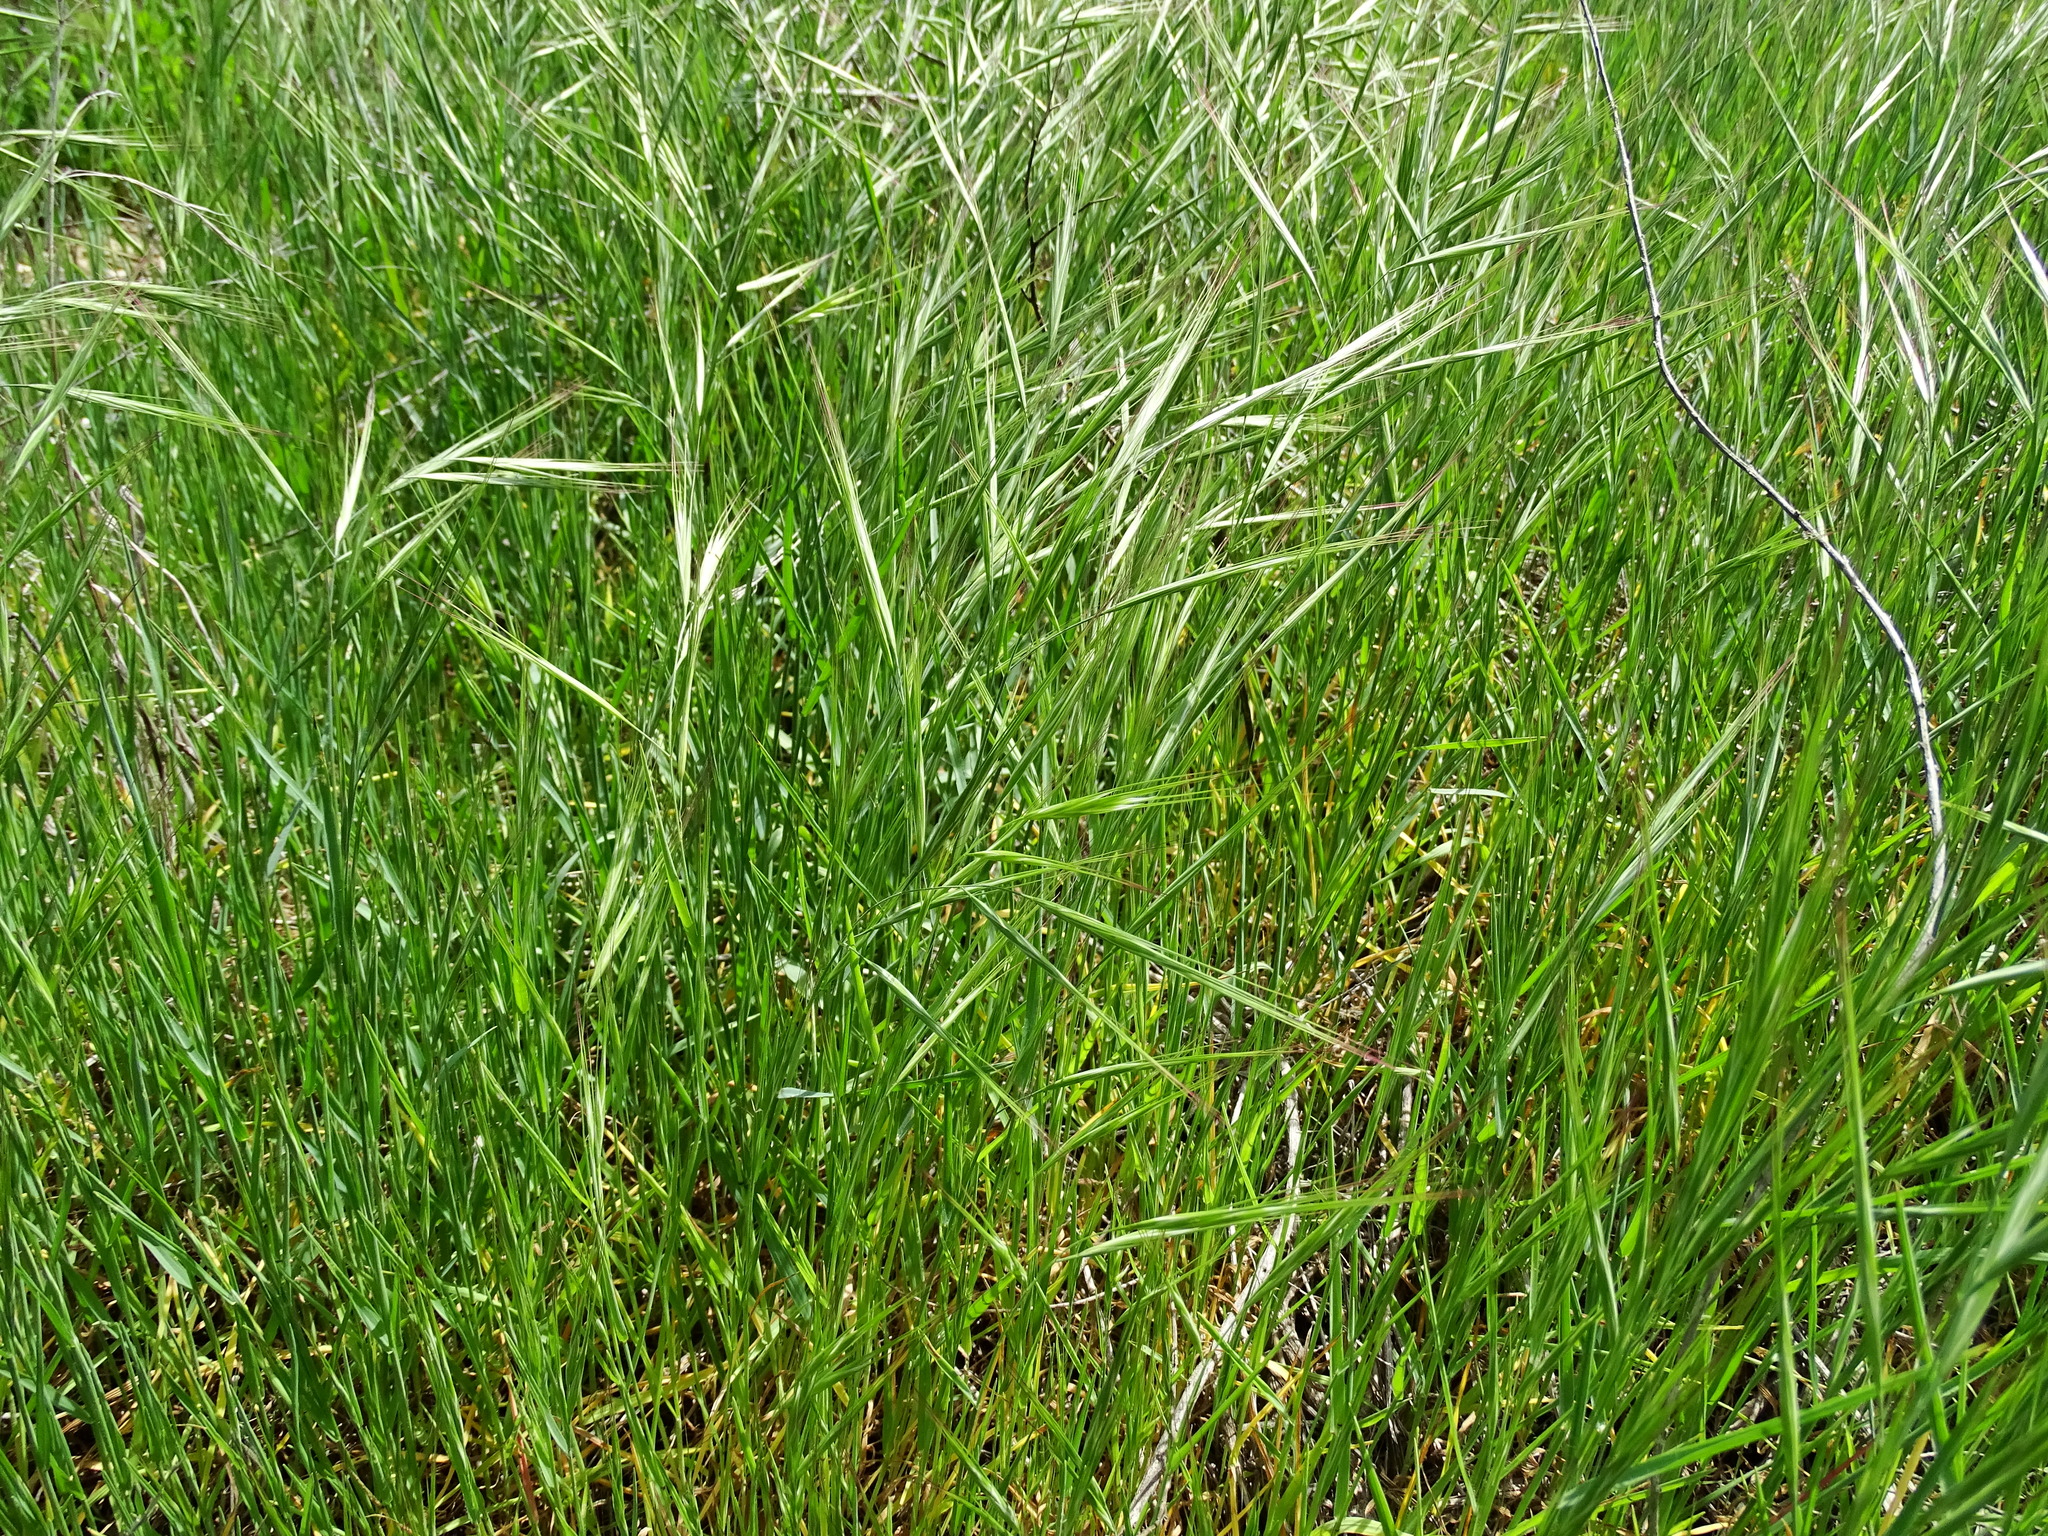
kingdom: Plantae
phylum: Tracheophyta
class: Liliopsida
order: Poales
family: Poaceae
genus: Bromus
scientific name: Bromus diandrus
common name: Ripgut brome
